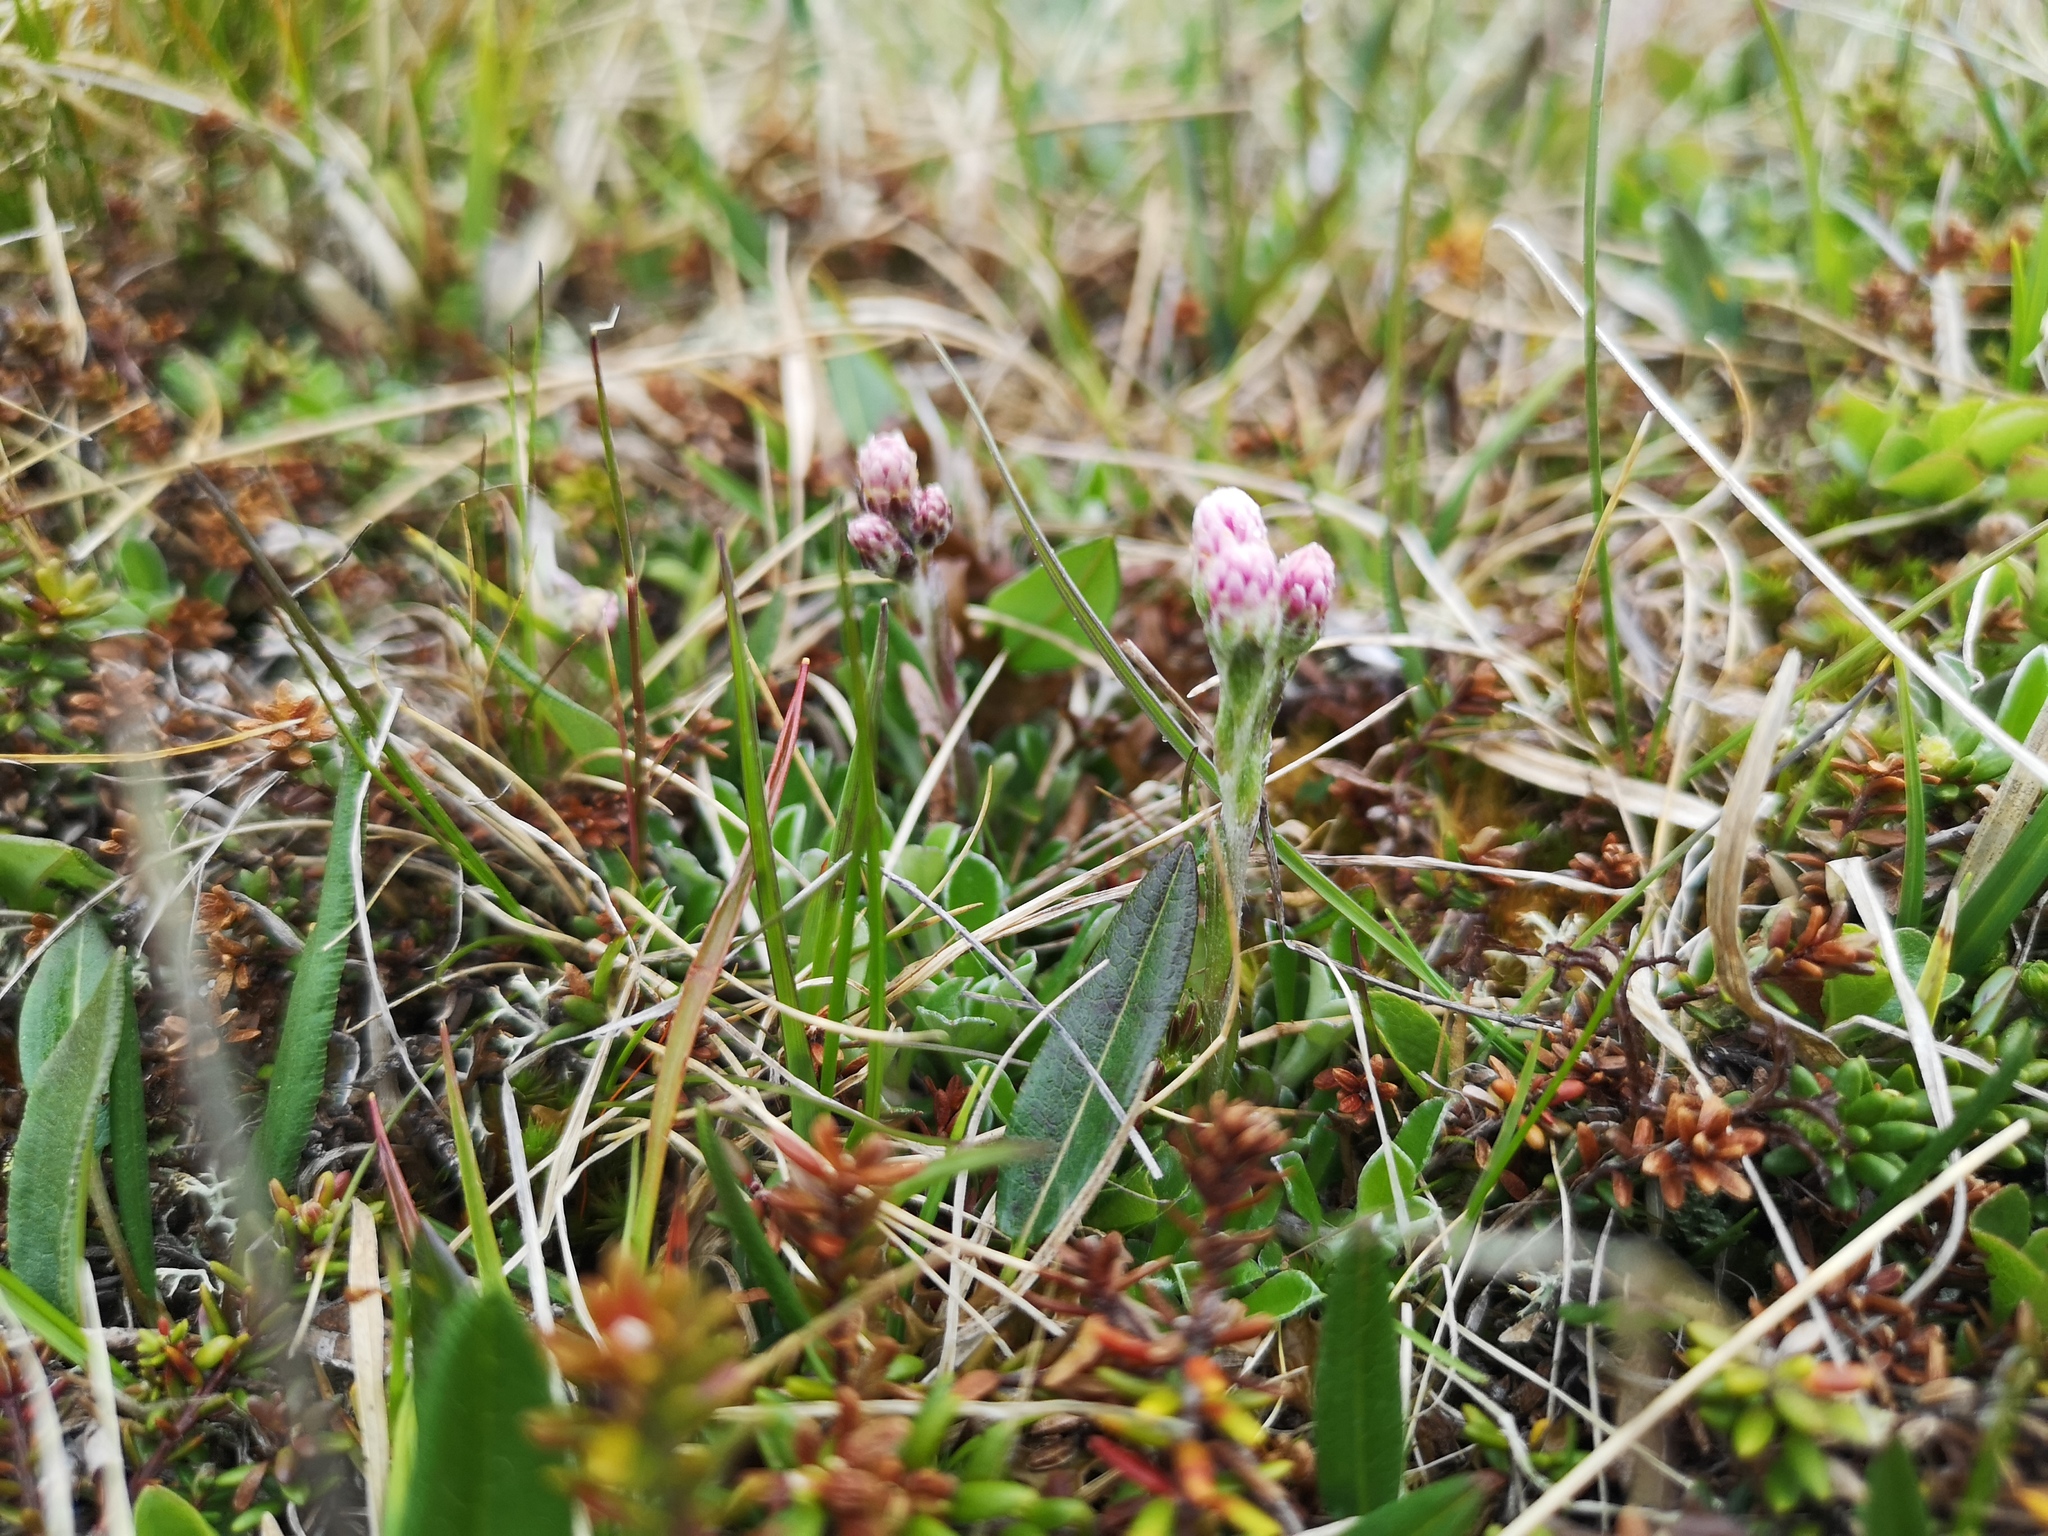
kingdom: Plantae
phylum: Tracheophyta
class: Magnoliopsida
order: Asterales
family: Asteraceae
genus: Antennaria
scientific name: Antennaria dioica
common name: Mountain everlasting
